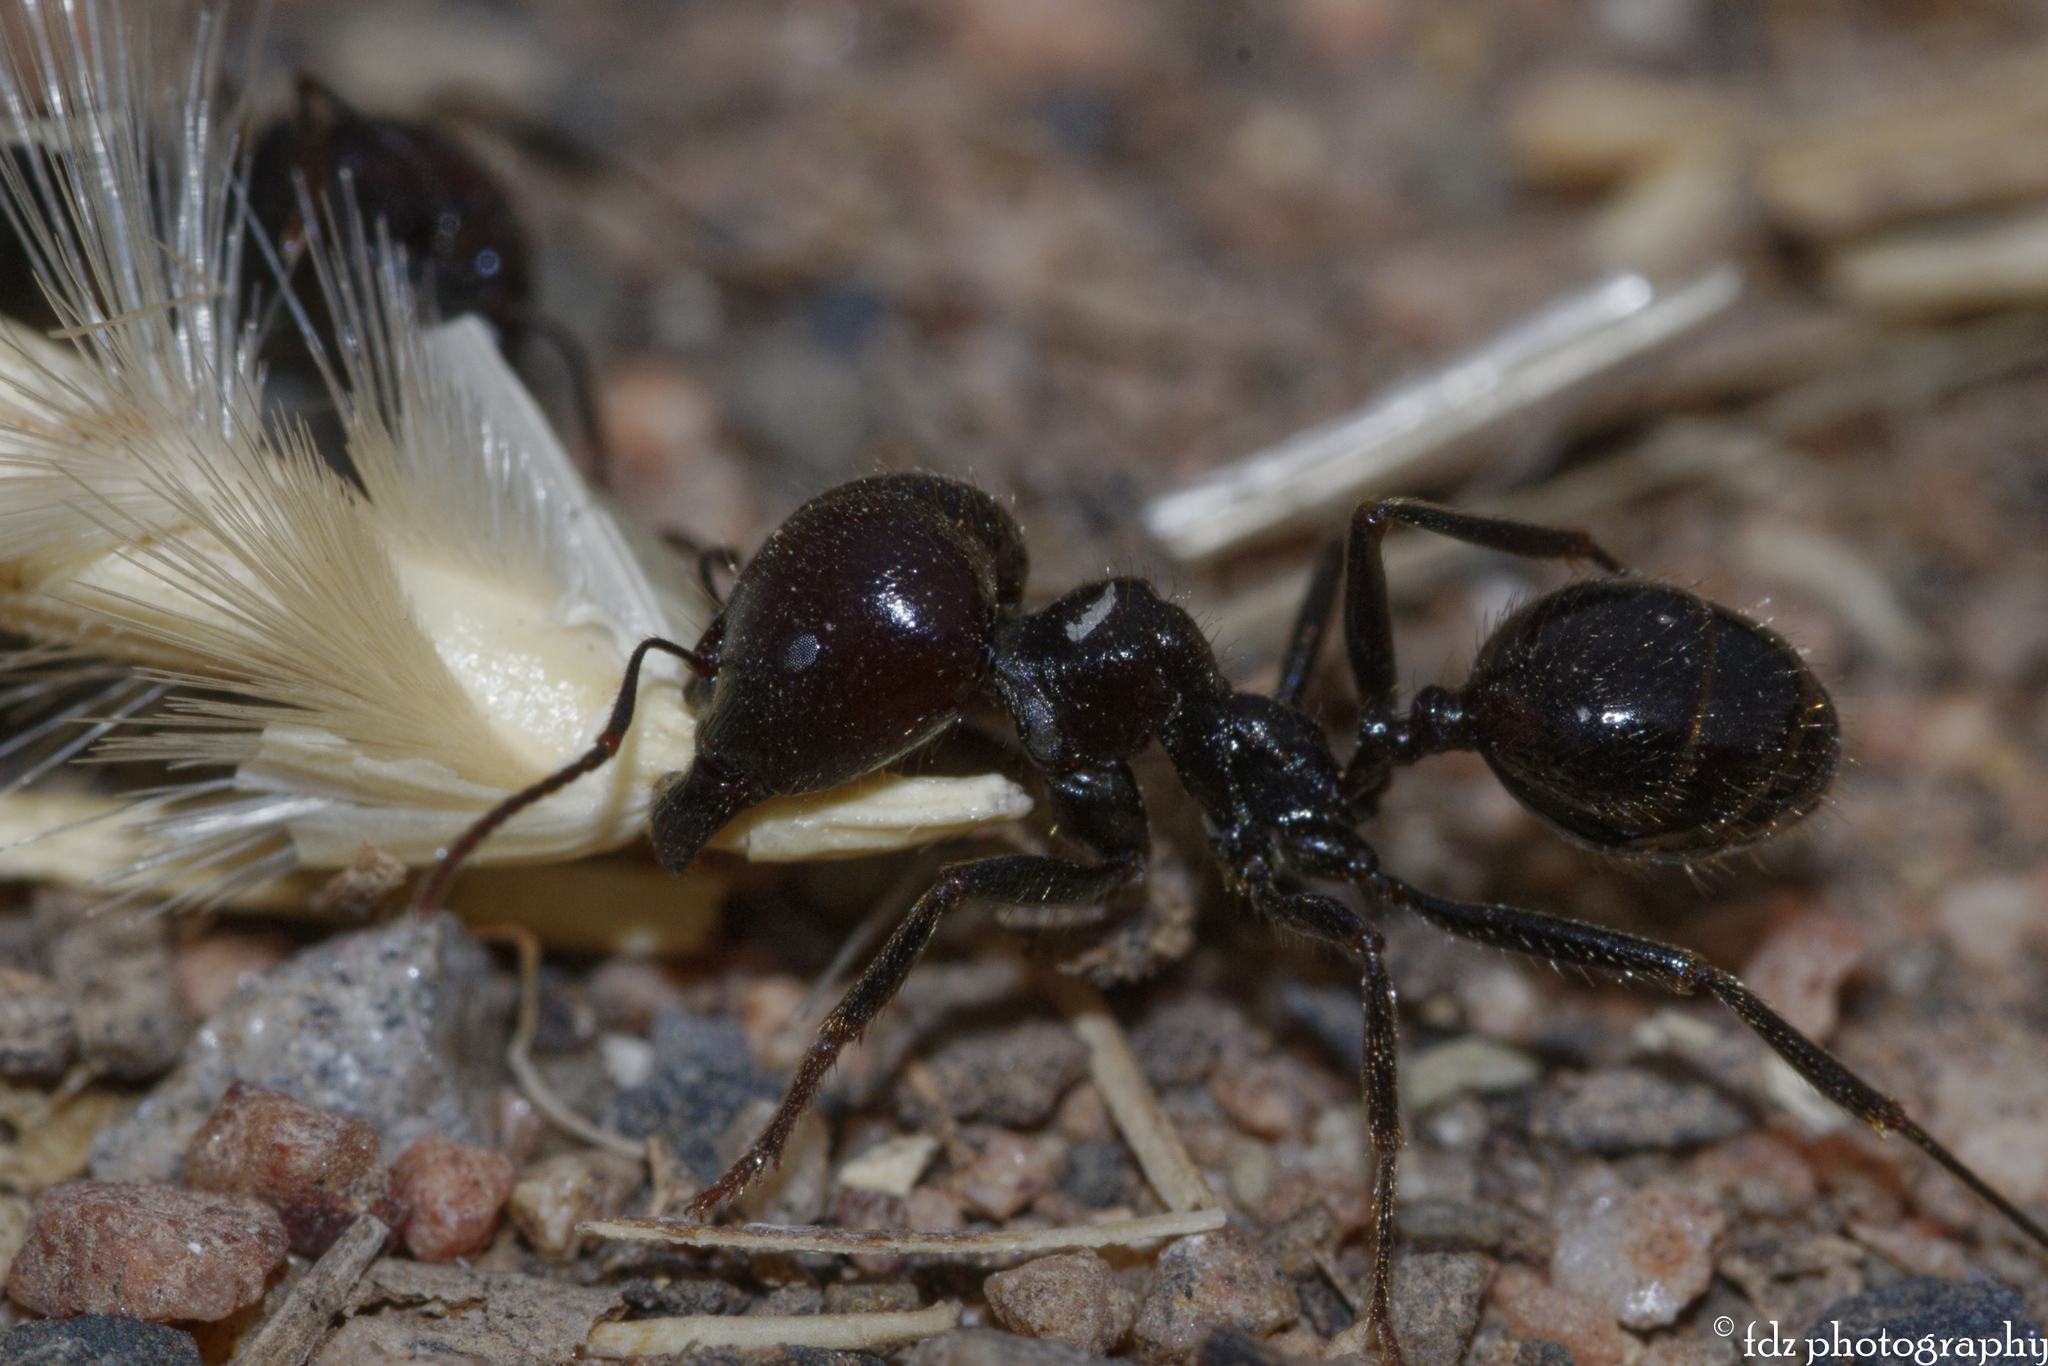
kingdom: Animalia
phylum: Arthropoda
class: Insecta
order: Hymenoptera
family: Formicidae
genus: Messor
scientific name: Messor barbarus
